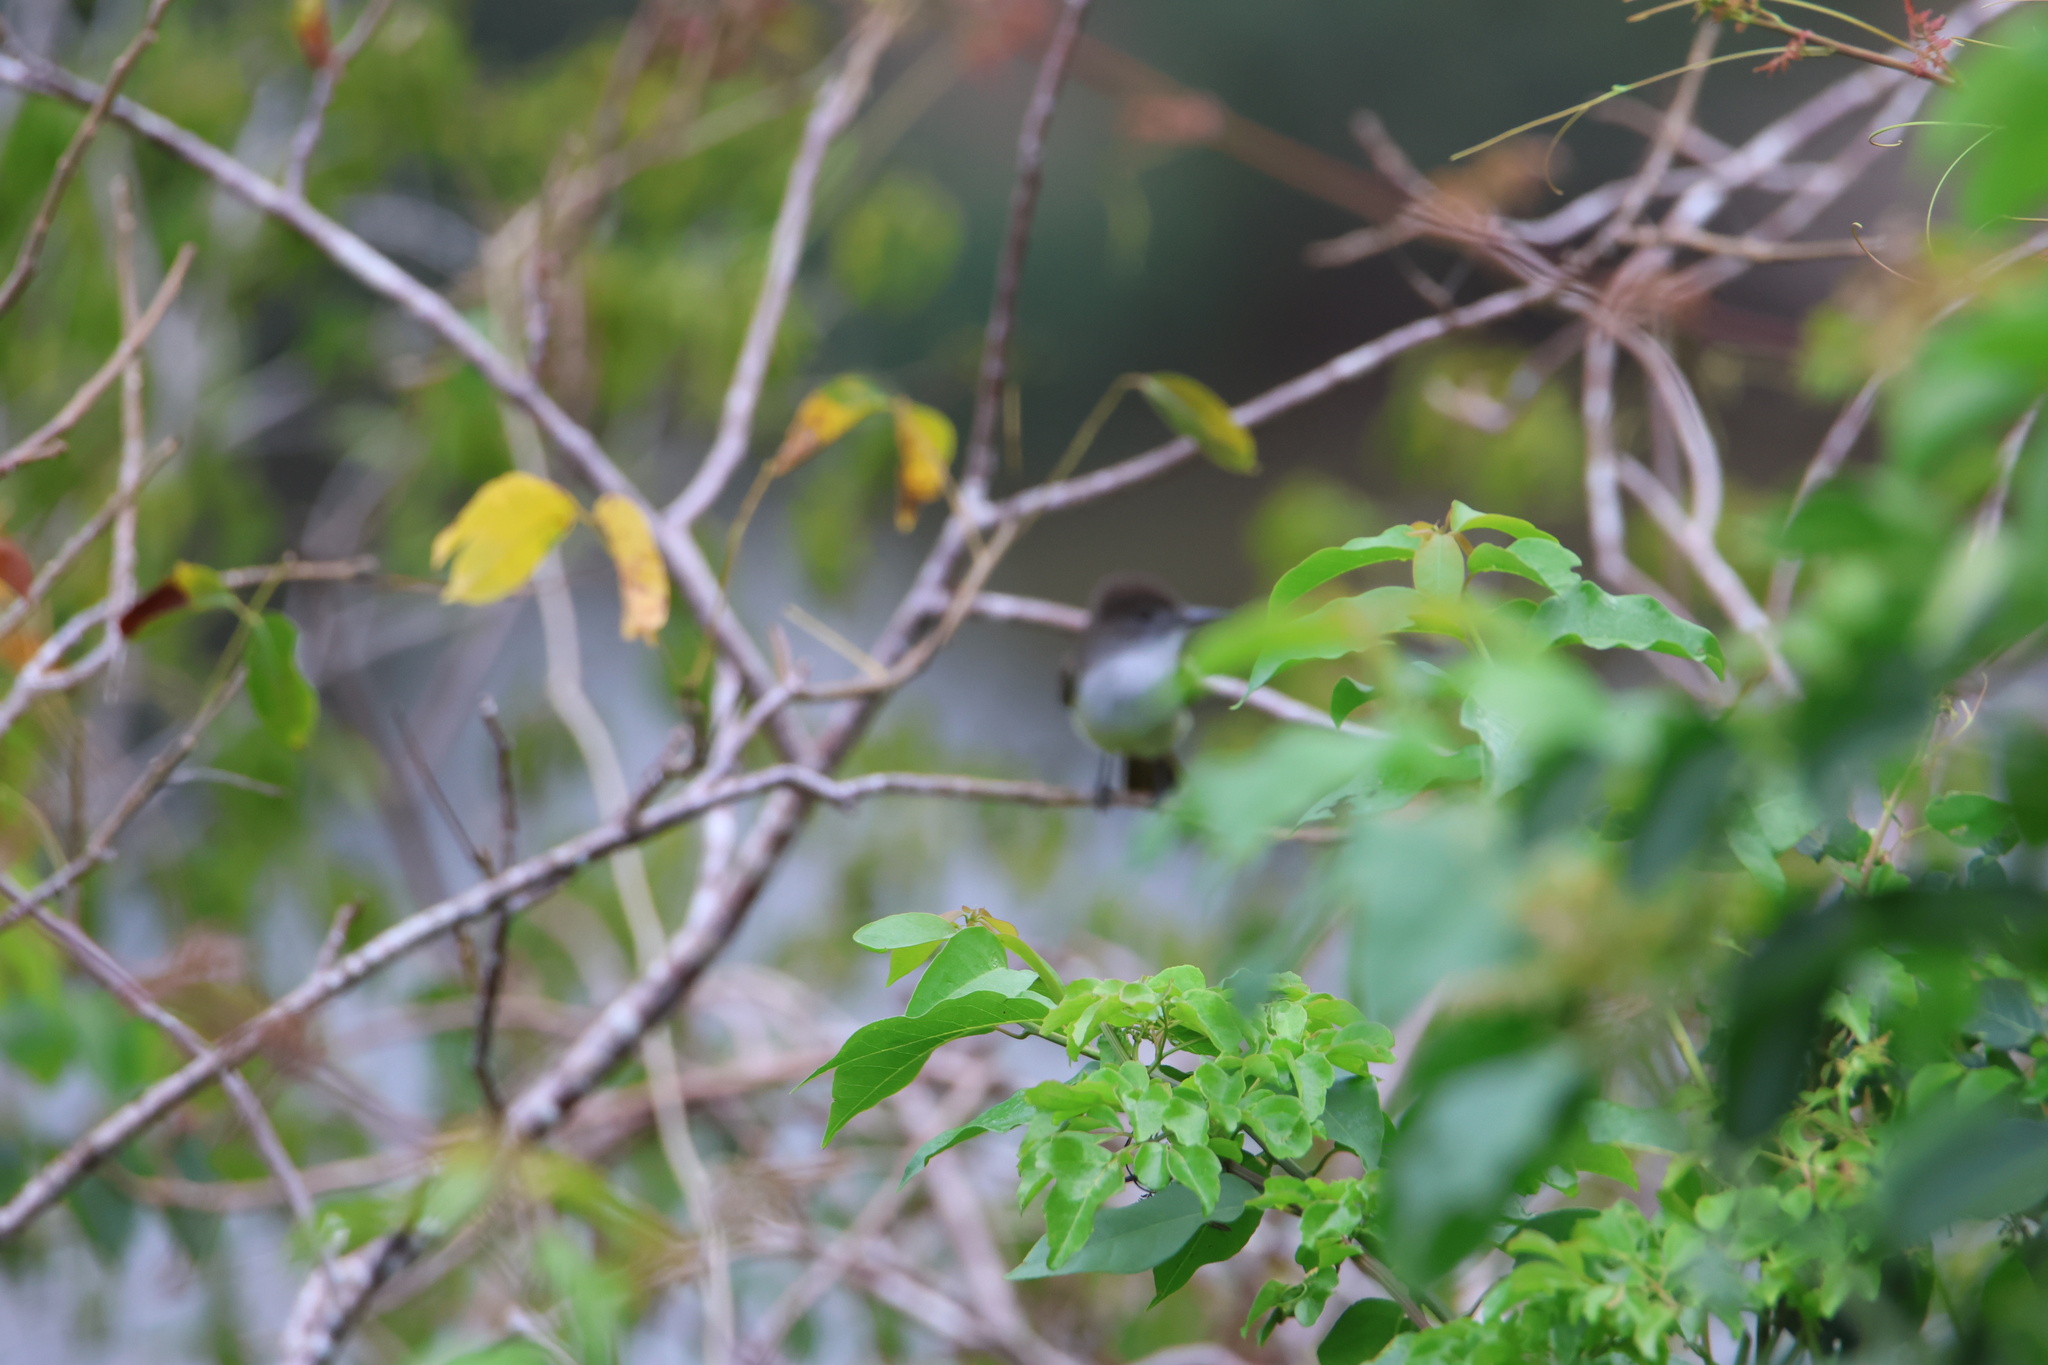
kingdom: Animalia
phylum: Chordata
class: Aves
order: Passeriformes
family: Tyrannidae
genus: Myiarchus
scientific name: Myiarchus stolidus
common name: Stolid flycatcher
